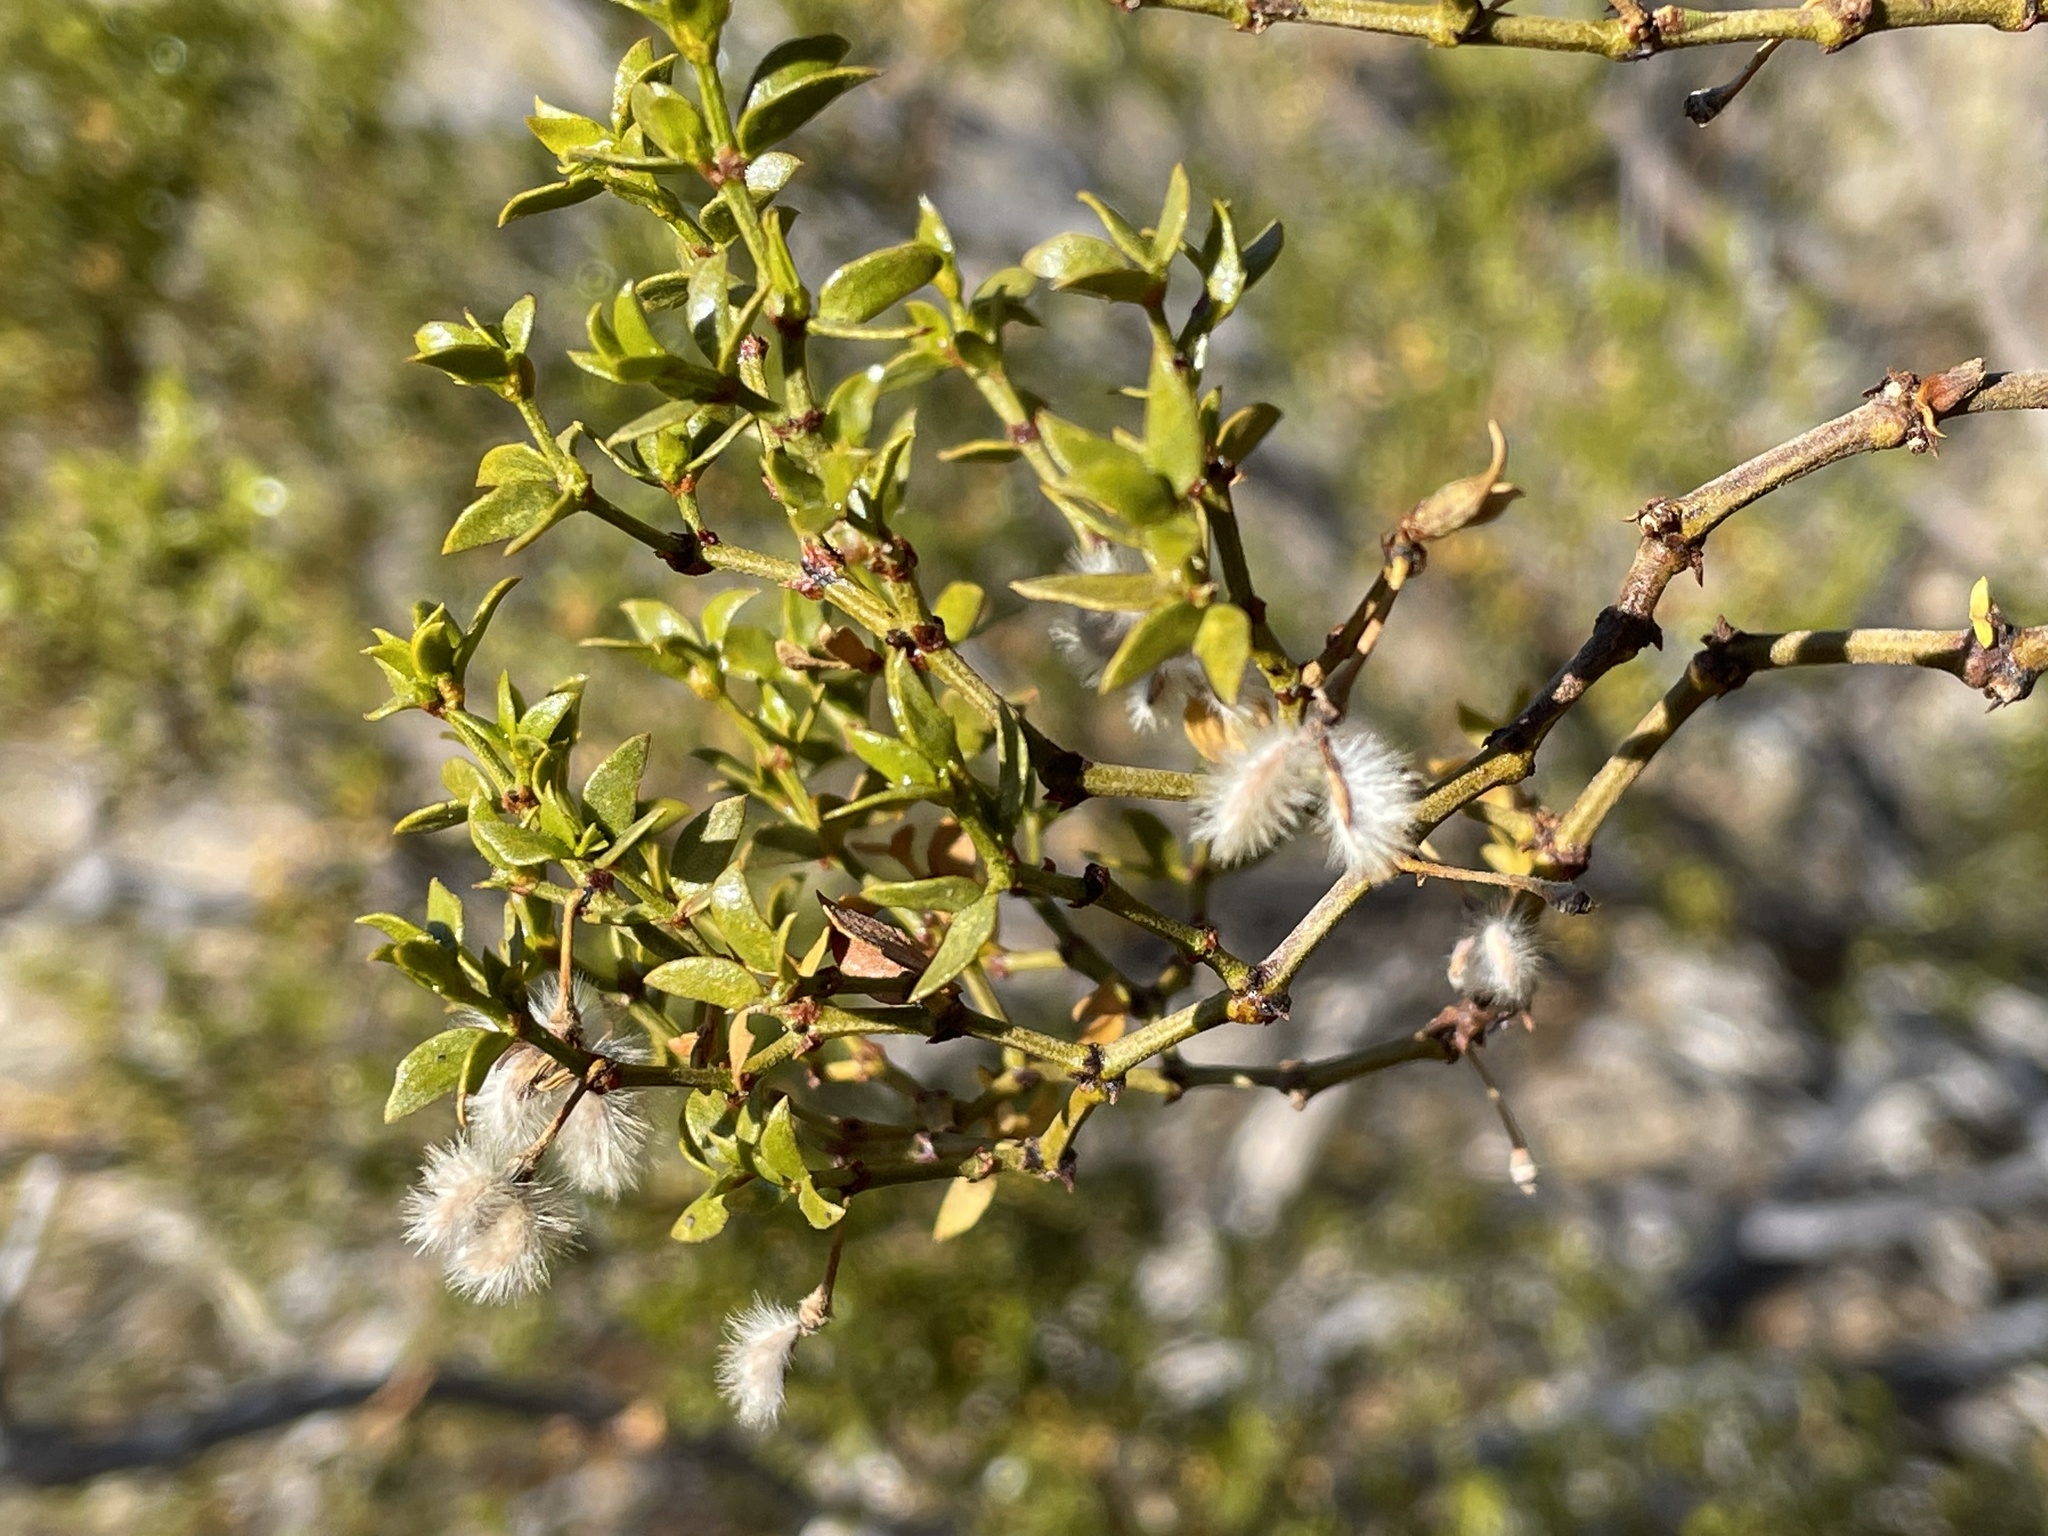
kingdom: Plantae
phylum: Tracheophyta
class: Magnoliopsida
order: Zygophyllales
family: Zygophyllaceae
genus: Larrea
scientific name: Larrea tridentata
